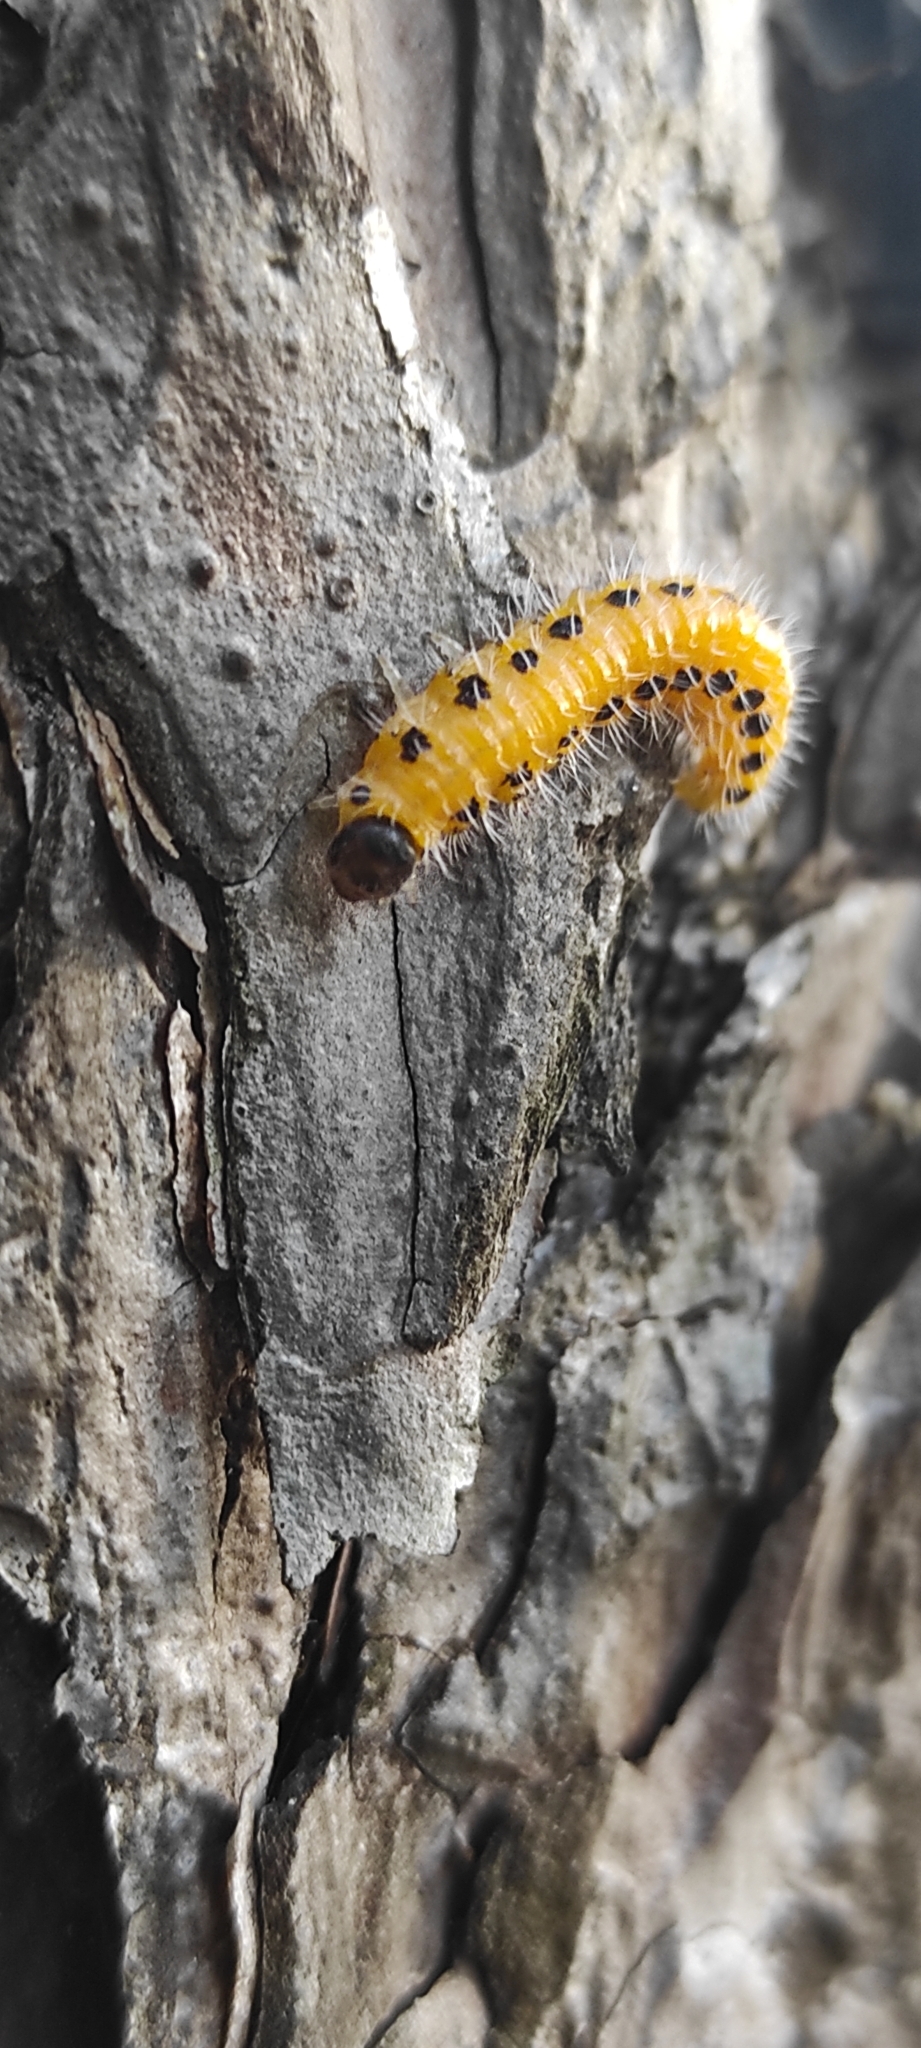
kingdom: Animalia
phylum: Arthropoda
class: Insecta
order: Hymenoptera
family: Tenthredinidae
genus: Cladius
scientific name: Cladius grandis
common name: Common sawfly
